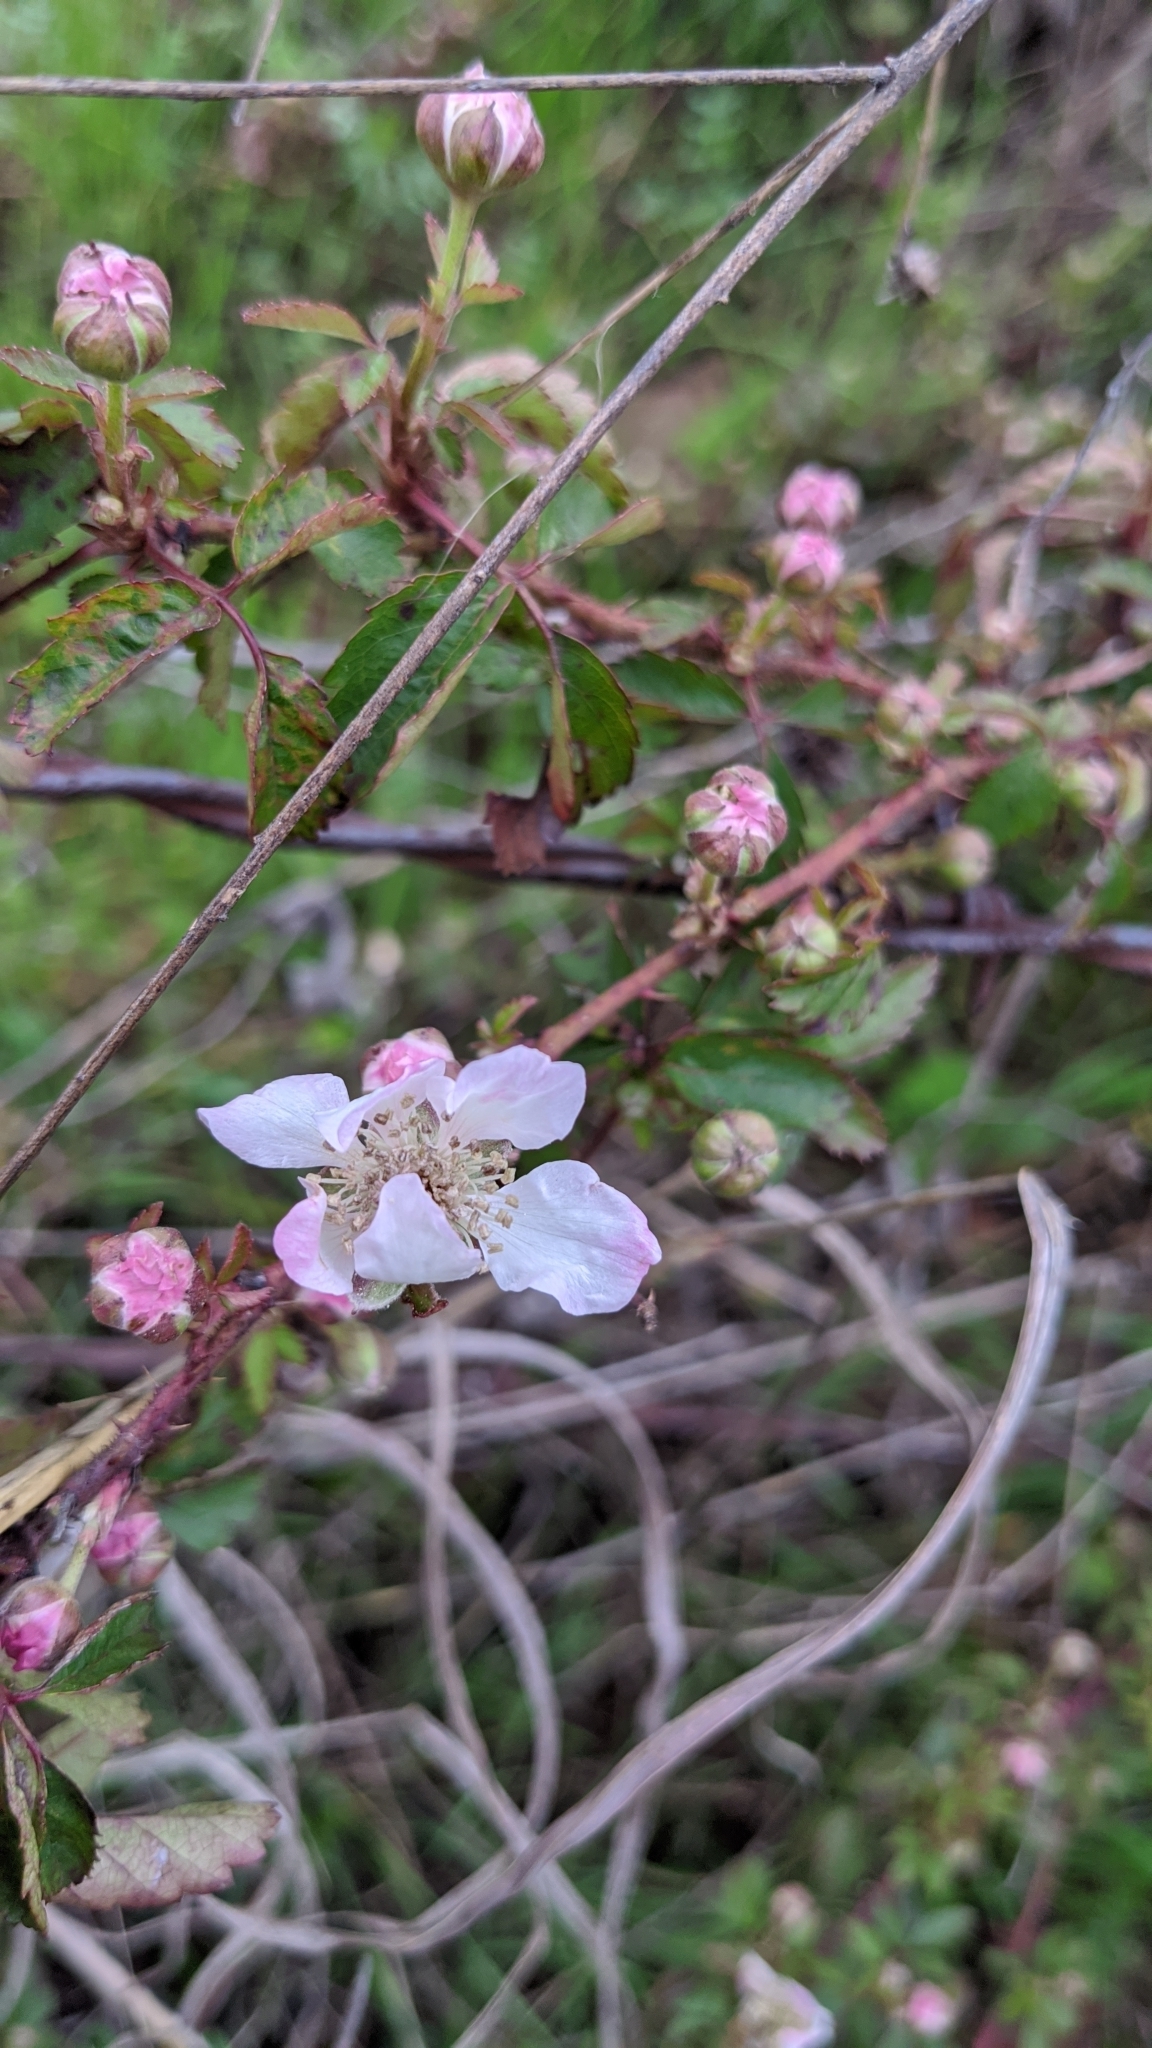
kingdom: Plantae
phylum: Tracheophyta
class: Magnoliopsida
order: Rosales
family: Rosaceae
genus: Rubus
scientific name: Rubus trivialis
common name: Southern dewberry
